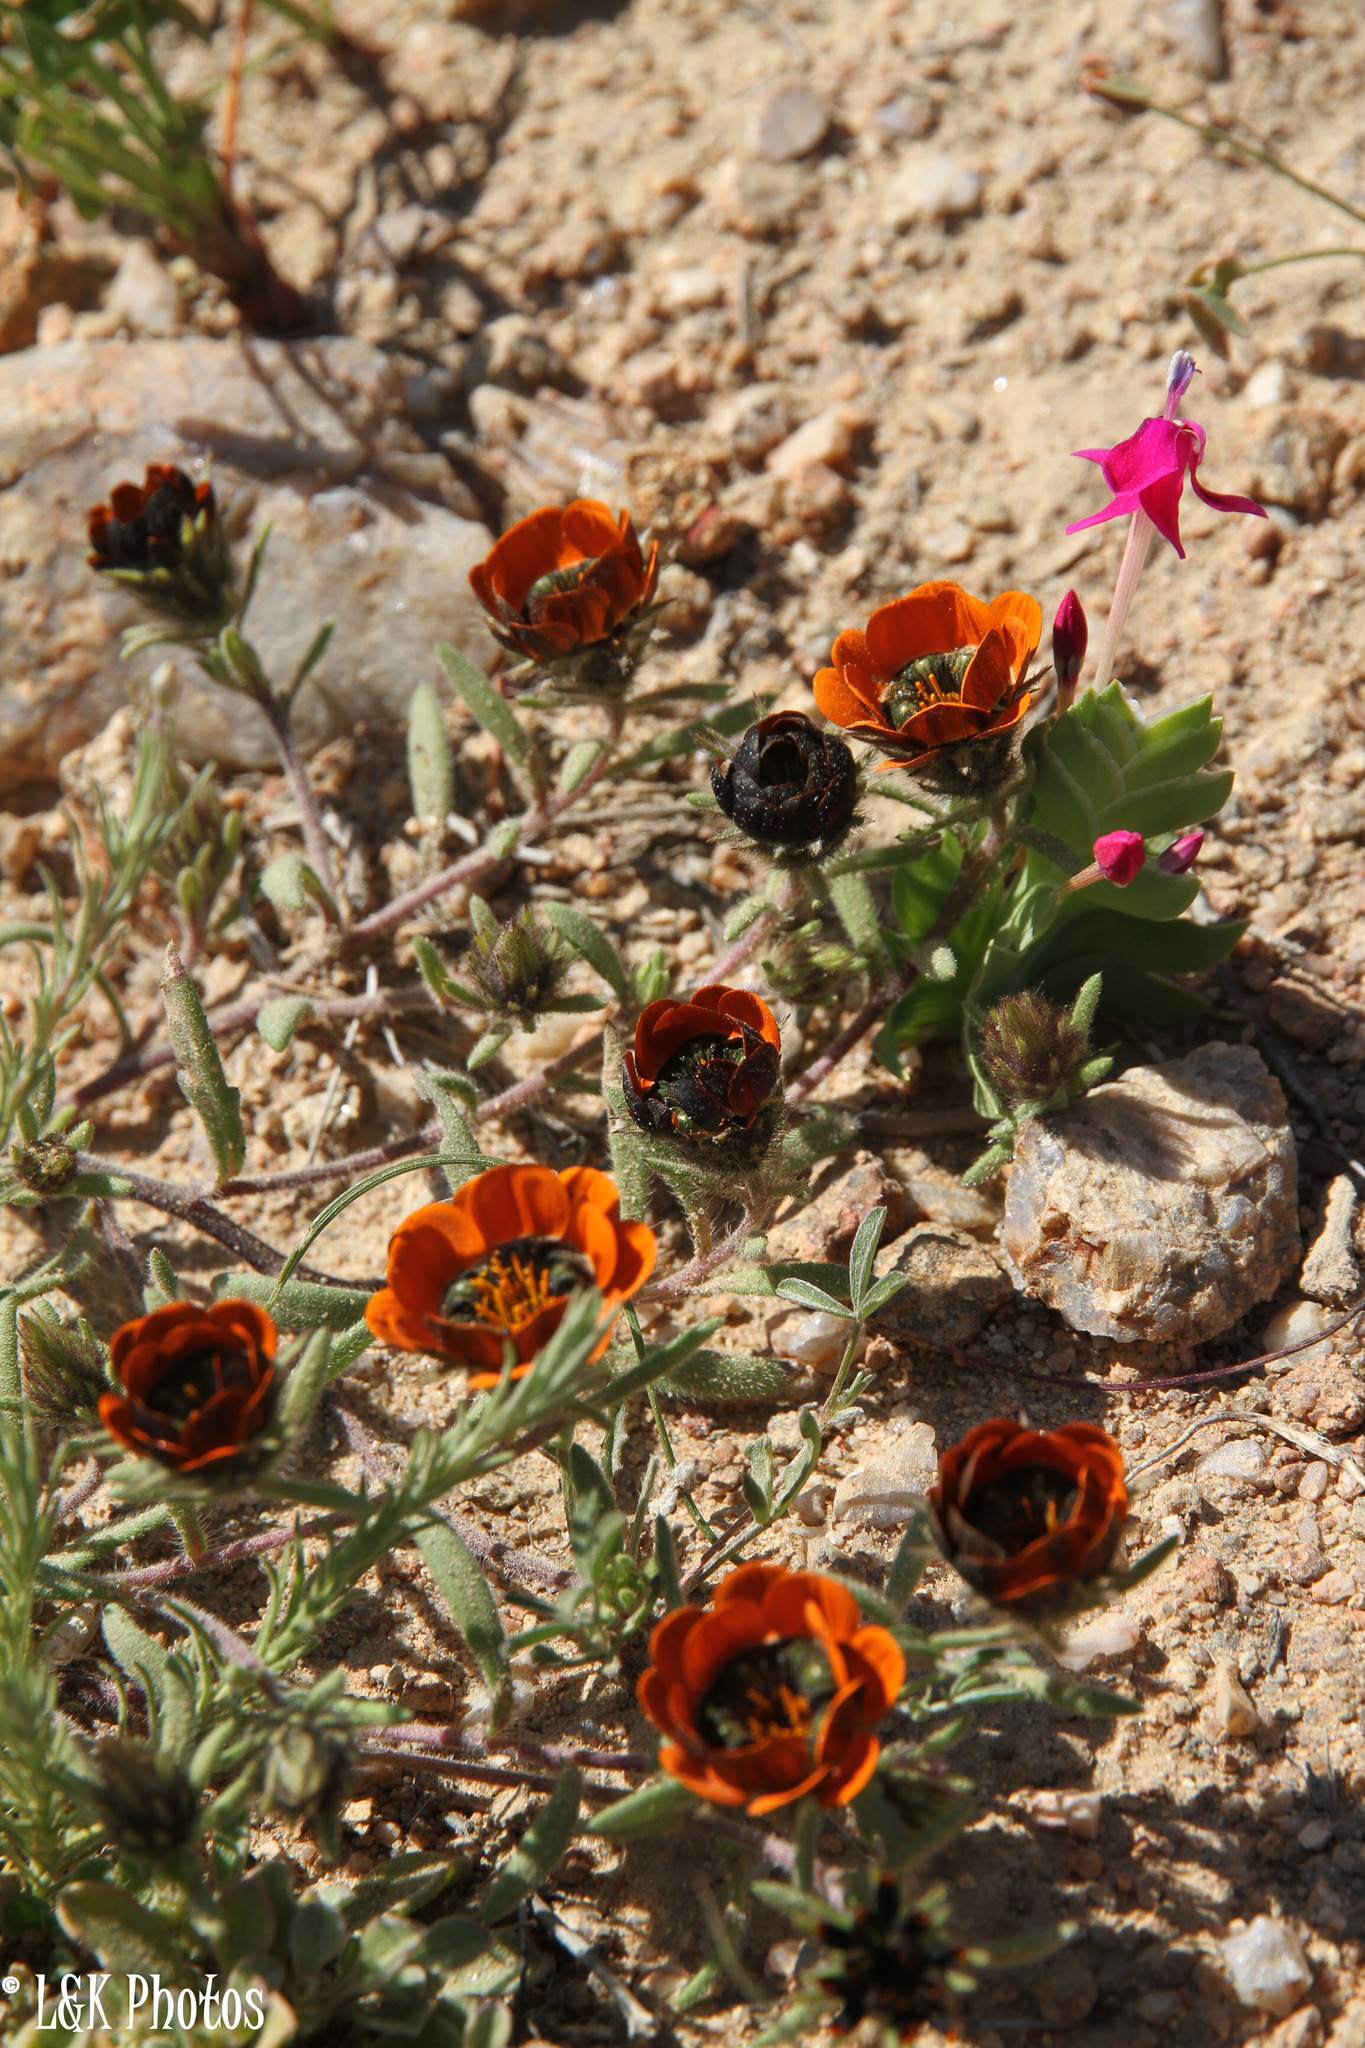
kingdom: Plantae
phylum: Tracheophyta
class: Magnoliopsida
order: Asterales
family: Asteraceae
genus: Gorteria
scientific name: Gorteria diffusa
